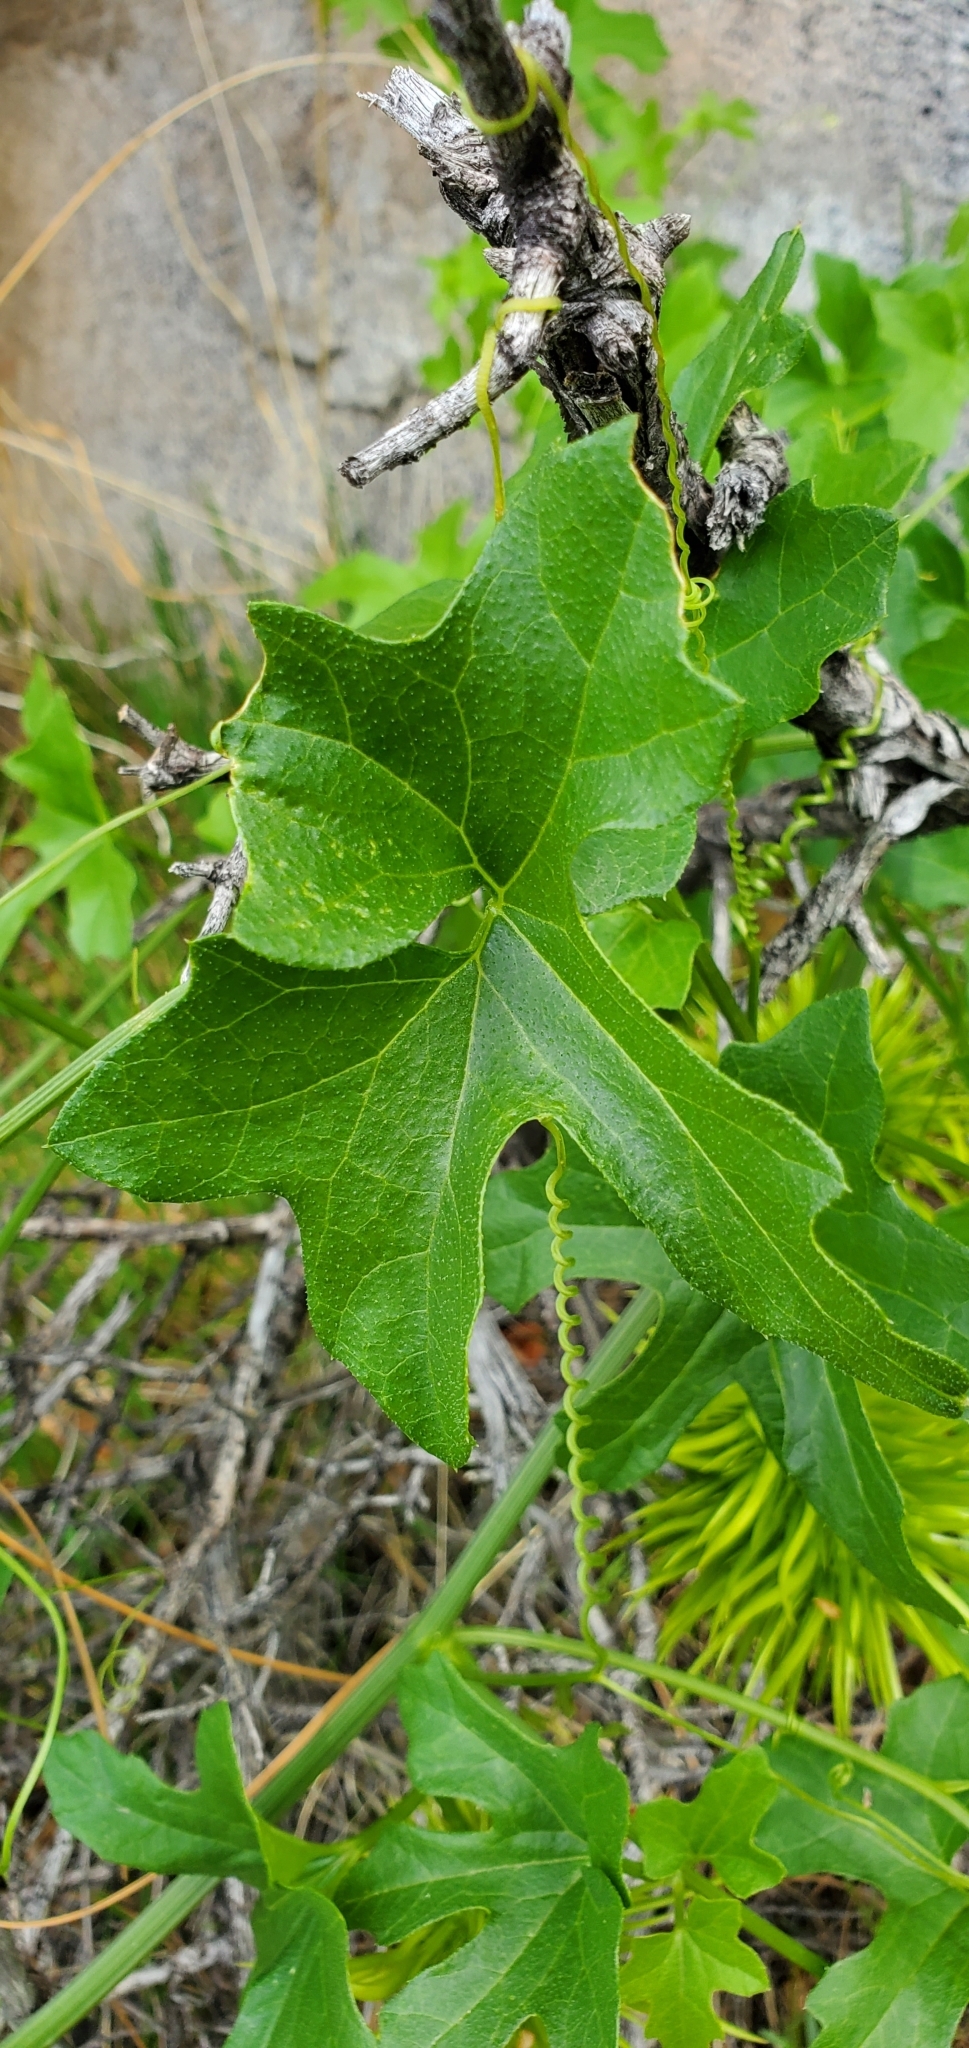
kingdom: Plantae
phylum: Tracheophyta
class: Magnoliopsida
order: Cucurbitales
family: Cucurbitaceae
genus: Marah
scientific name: Marah horrida
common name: Sierra manroot
